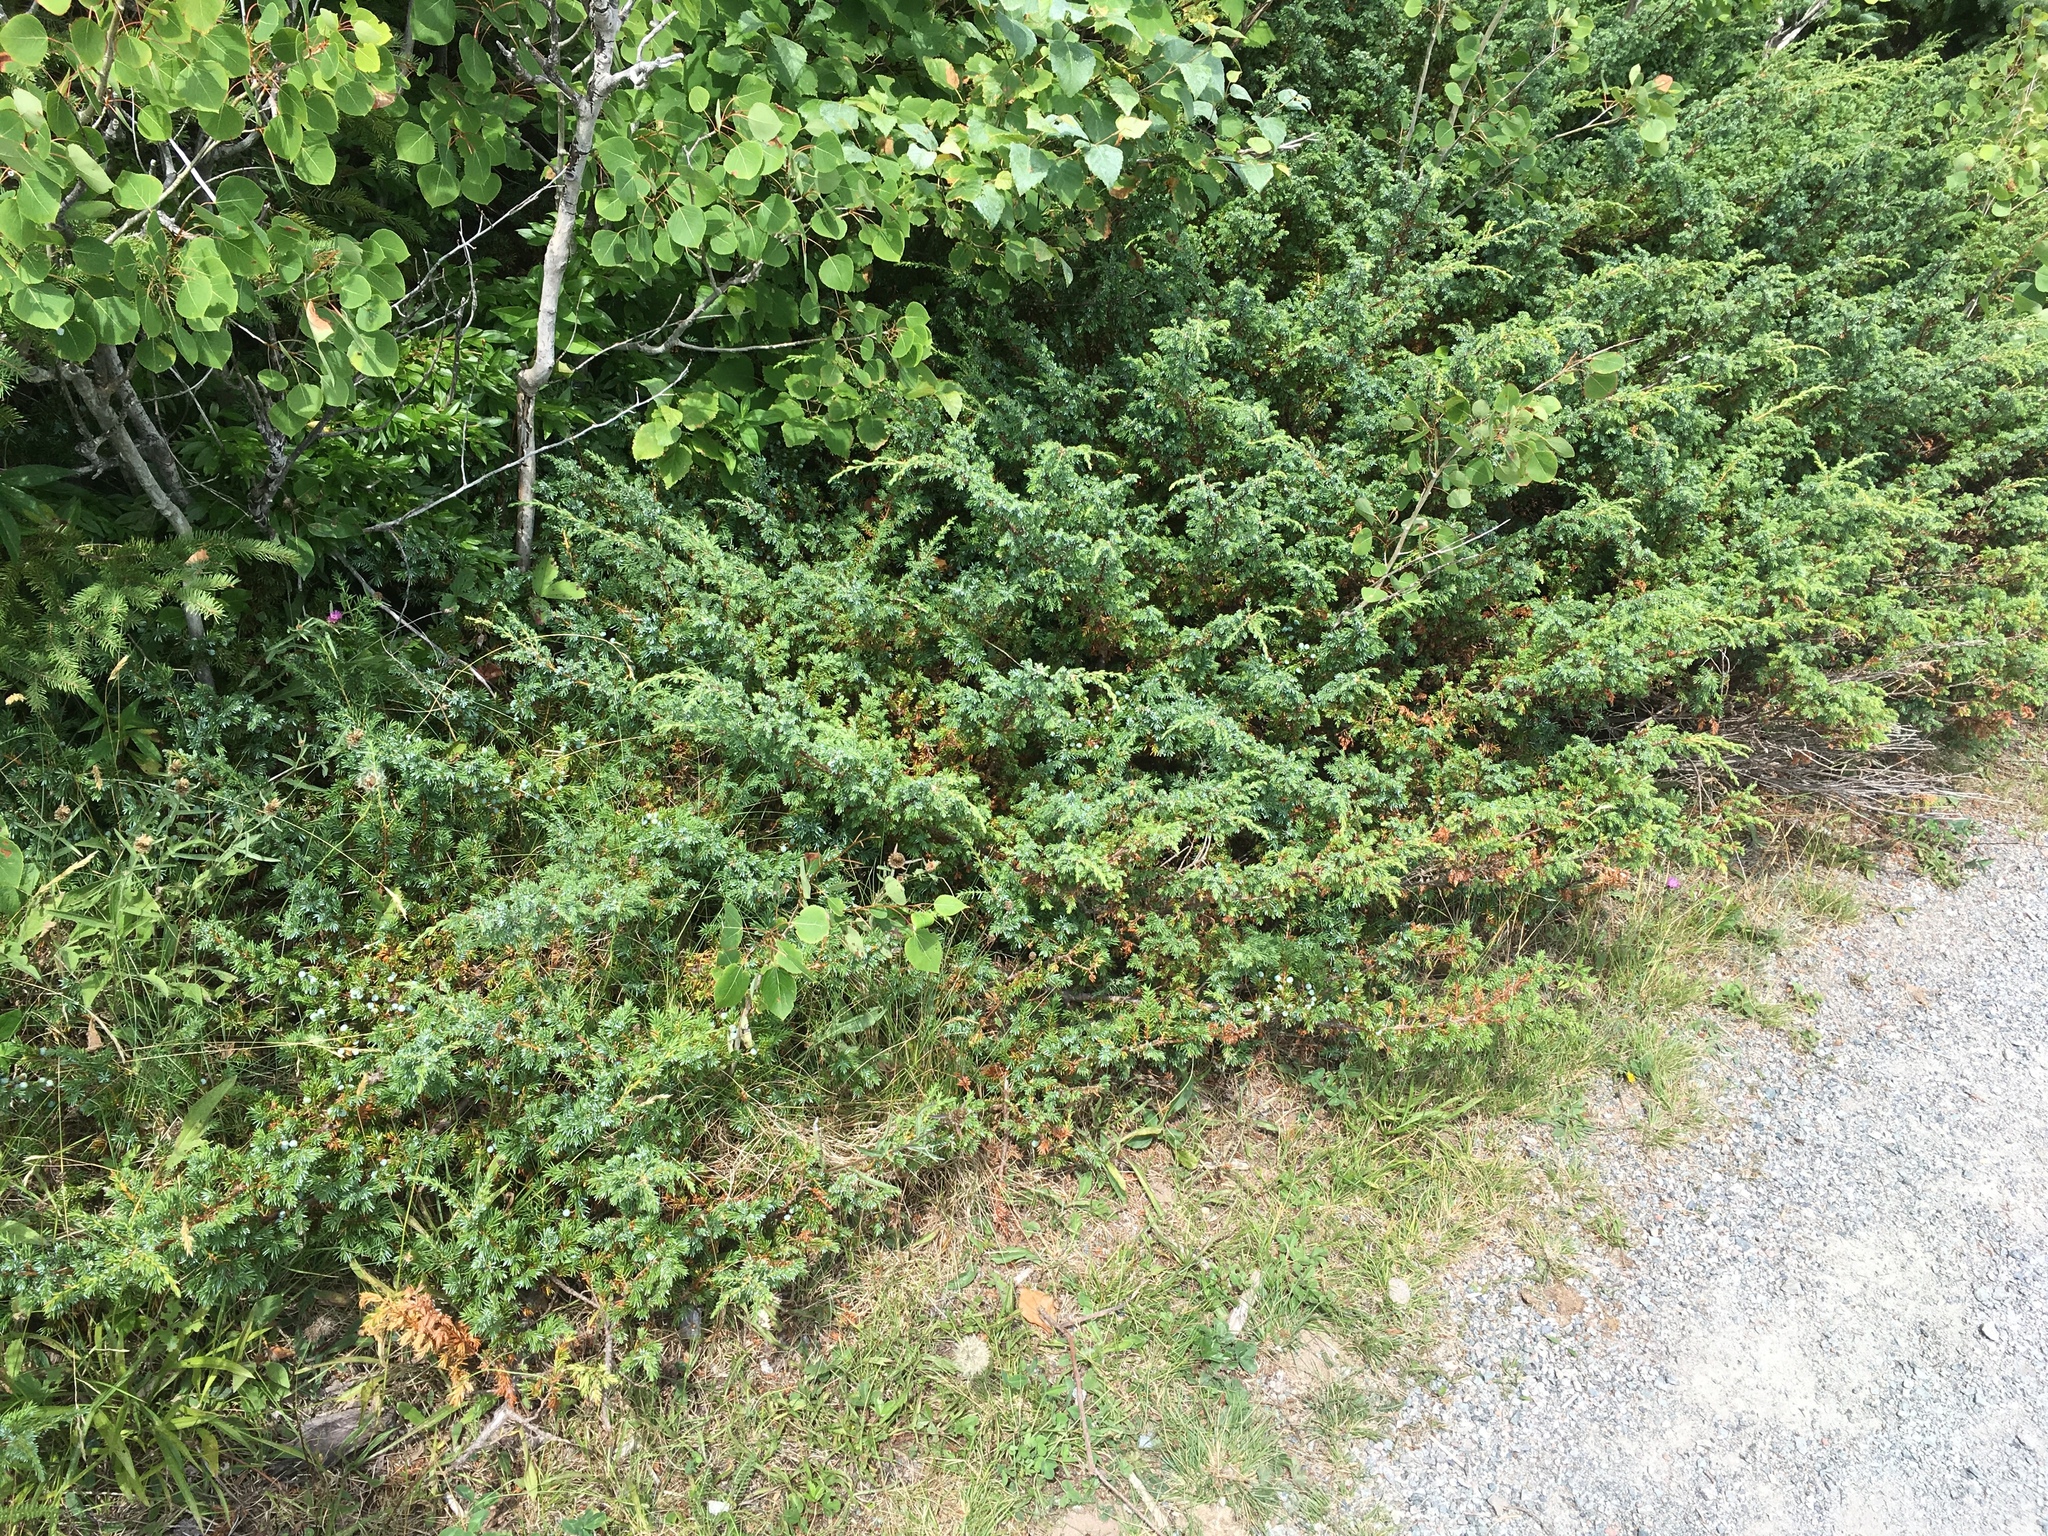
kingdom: Plantae
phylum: Tracheophyta
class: Pinopsida
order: Pinales
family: Cupressaceae
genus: Juniperus
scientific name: Juniperus communis
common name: Common juniper
